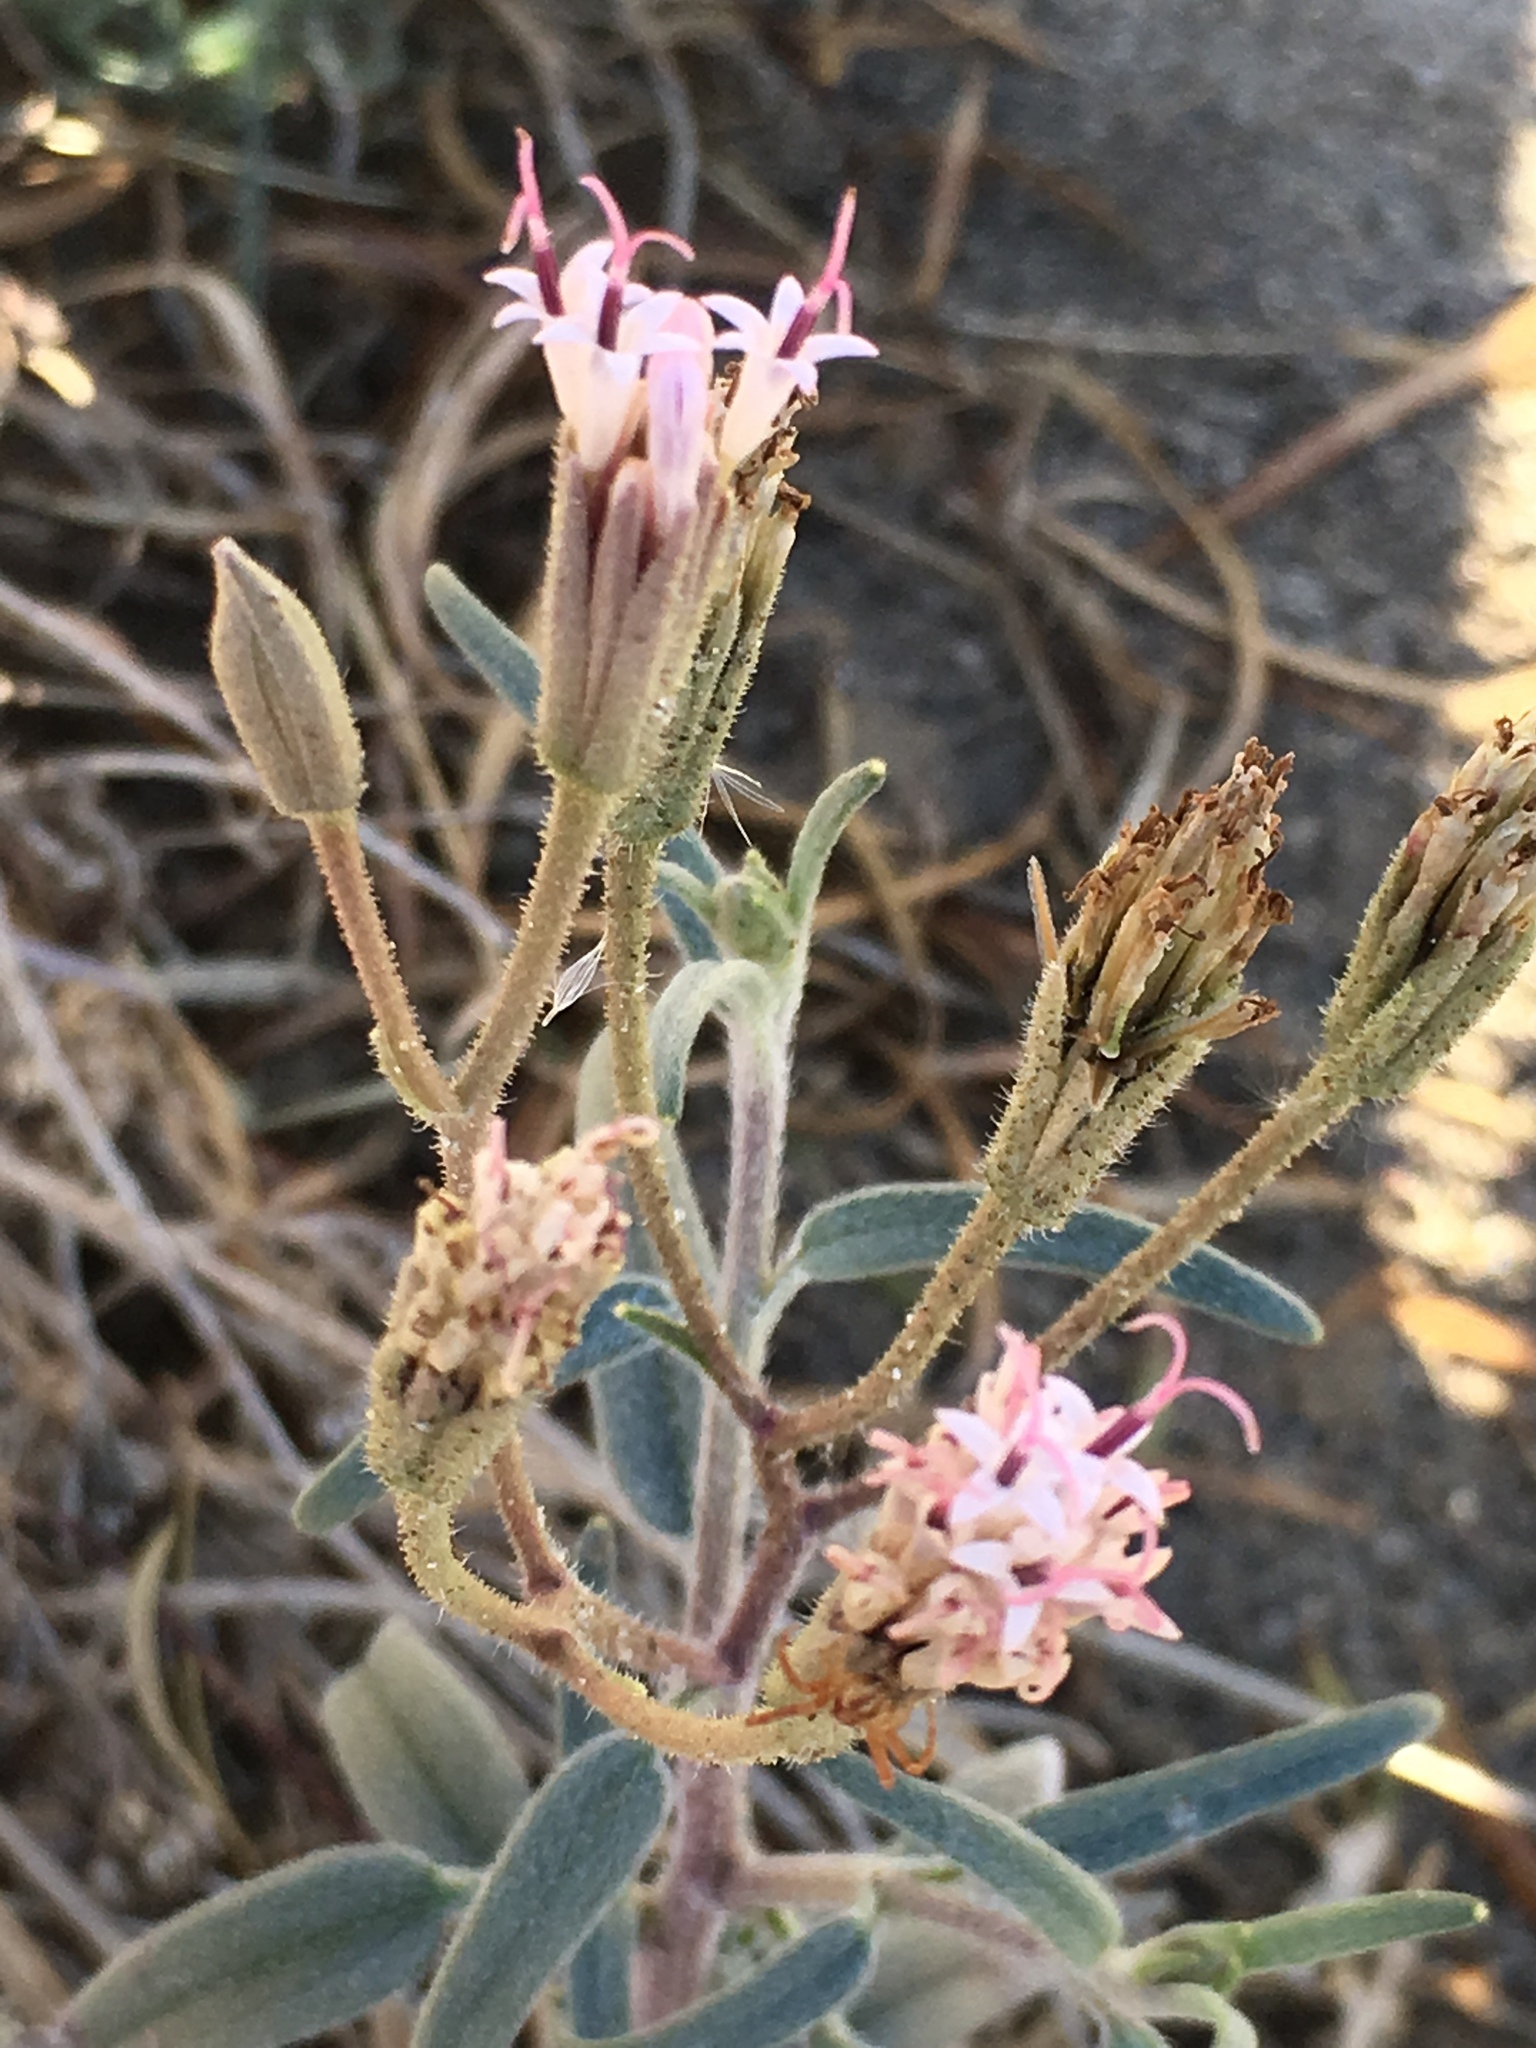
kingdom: Plantae
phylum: Tracheophyta
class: Magnoliopsida
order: Asterales
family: Asteraceae
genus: Palafoxia
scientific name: Palafoxia arida
